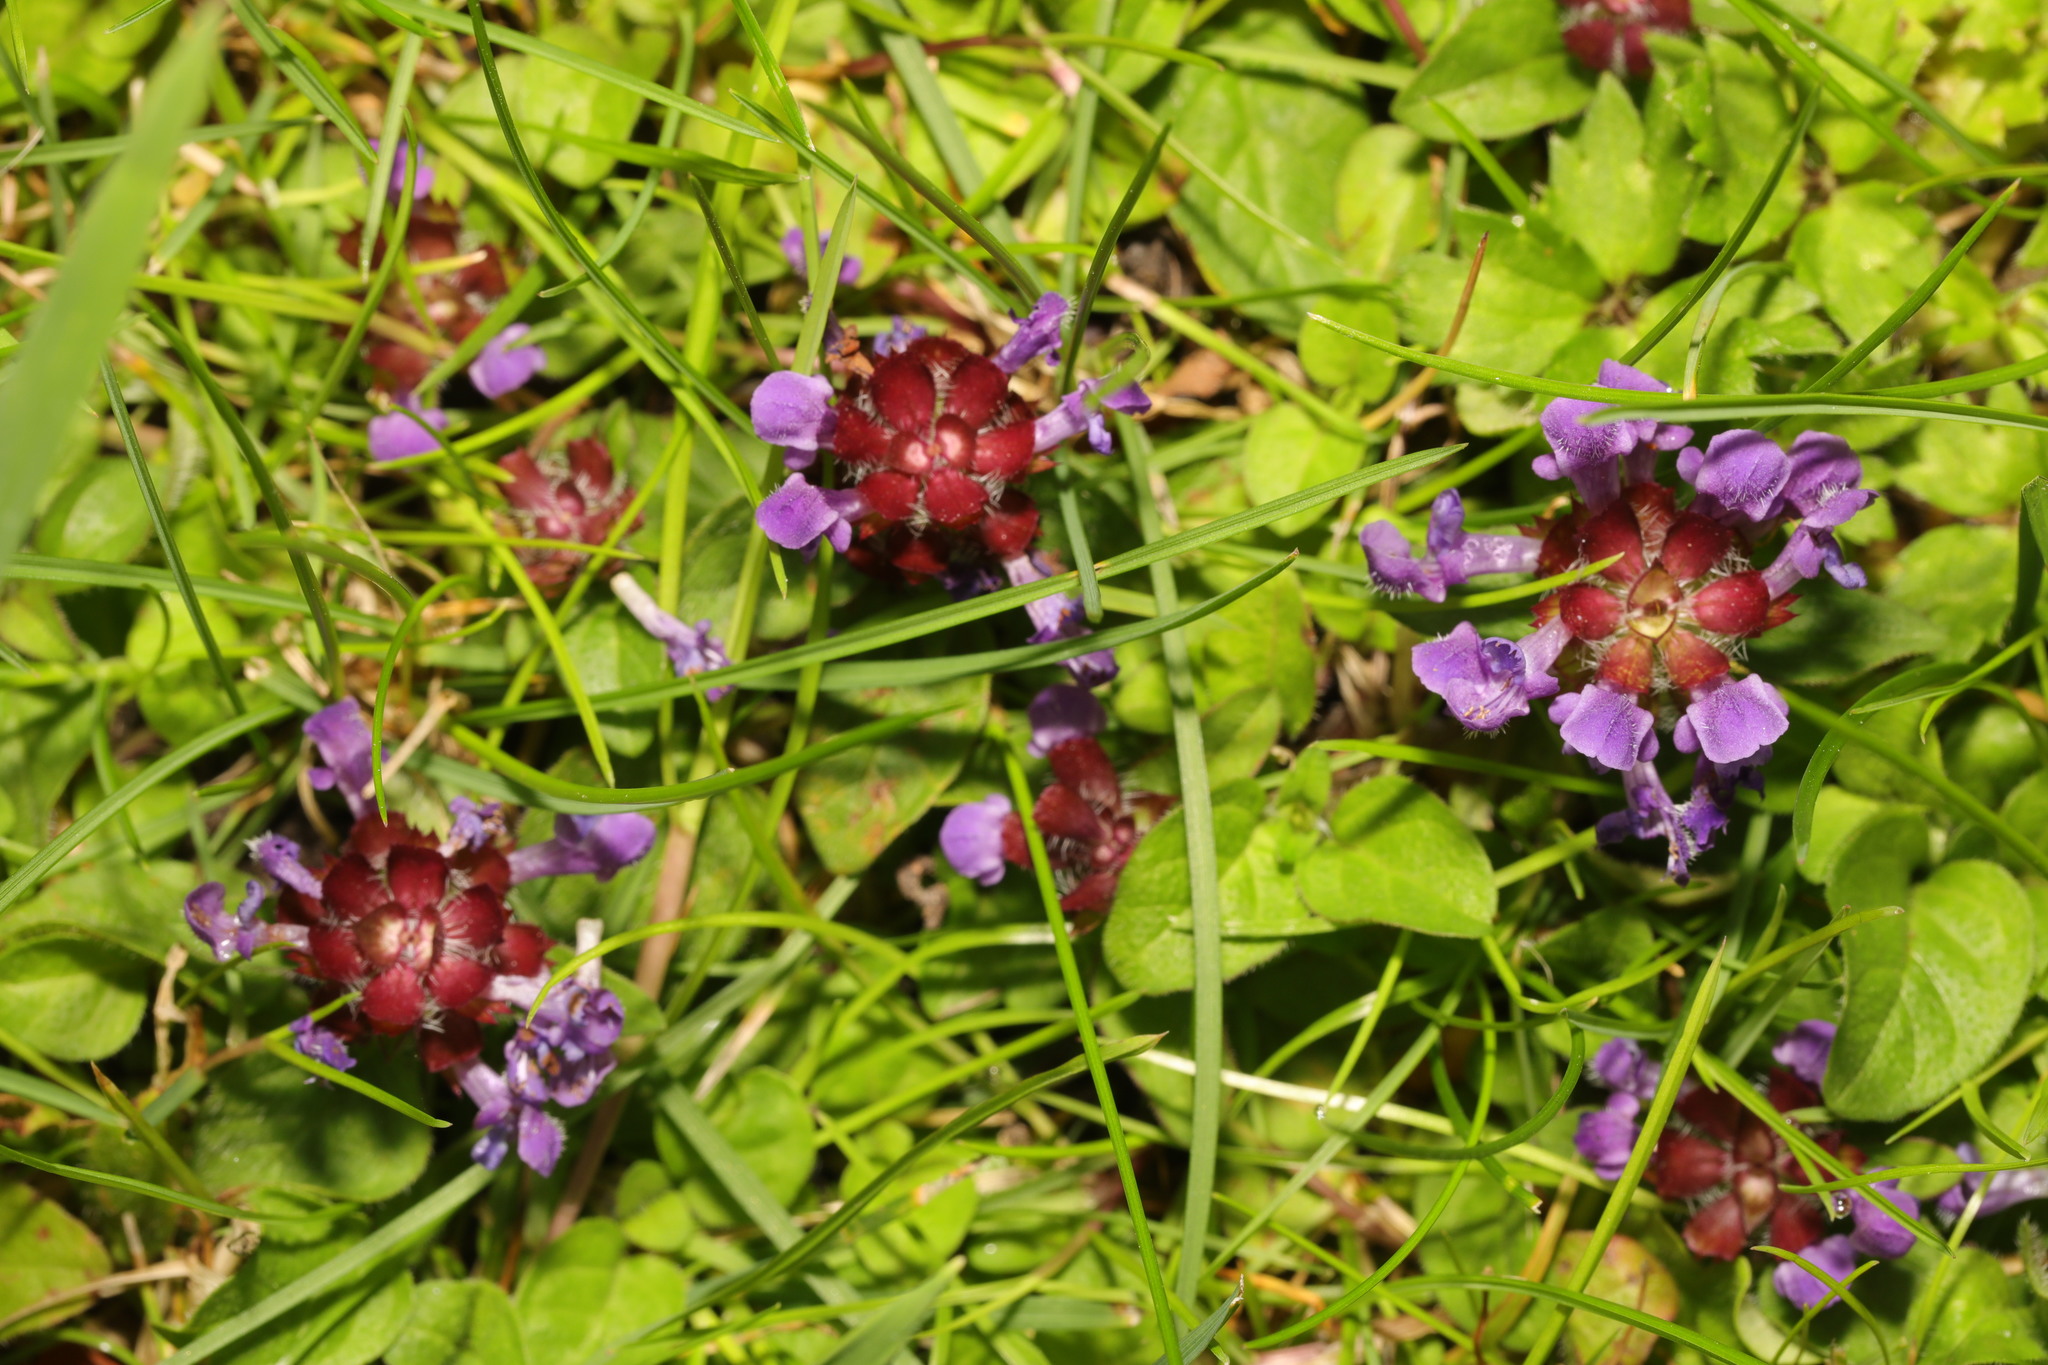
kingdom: Plantae
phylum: Tracheophyta
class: Magnoliopsida
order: Lamiales
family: Lamiaceae
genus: Prunella
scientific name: Prunella vulgaris
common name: Heal-all
